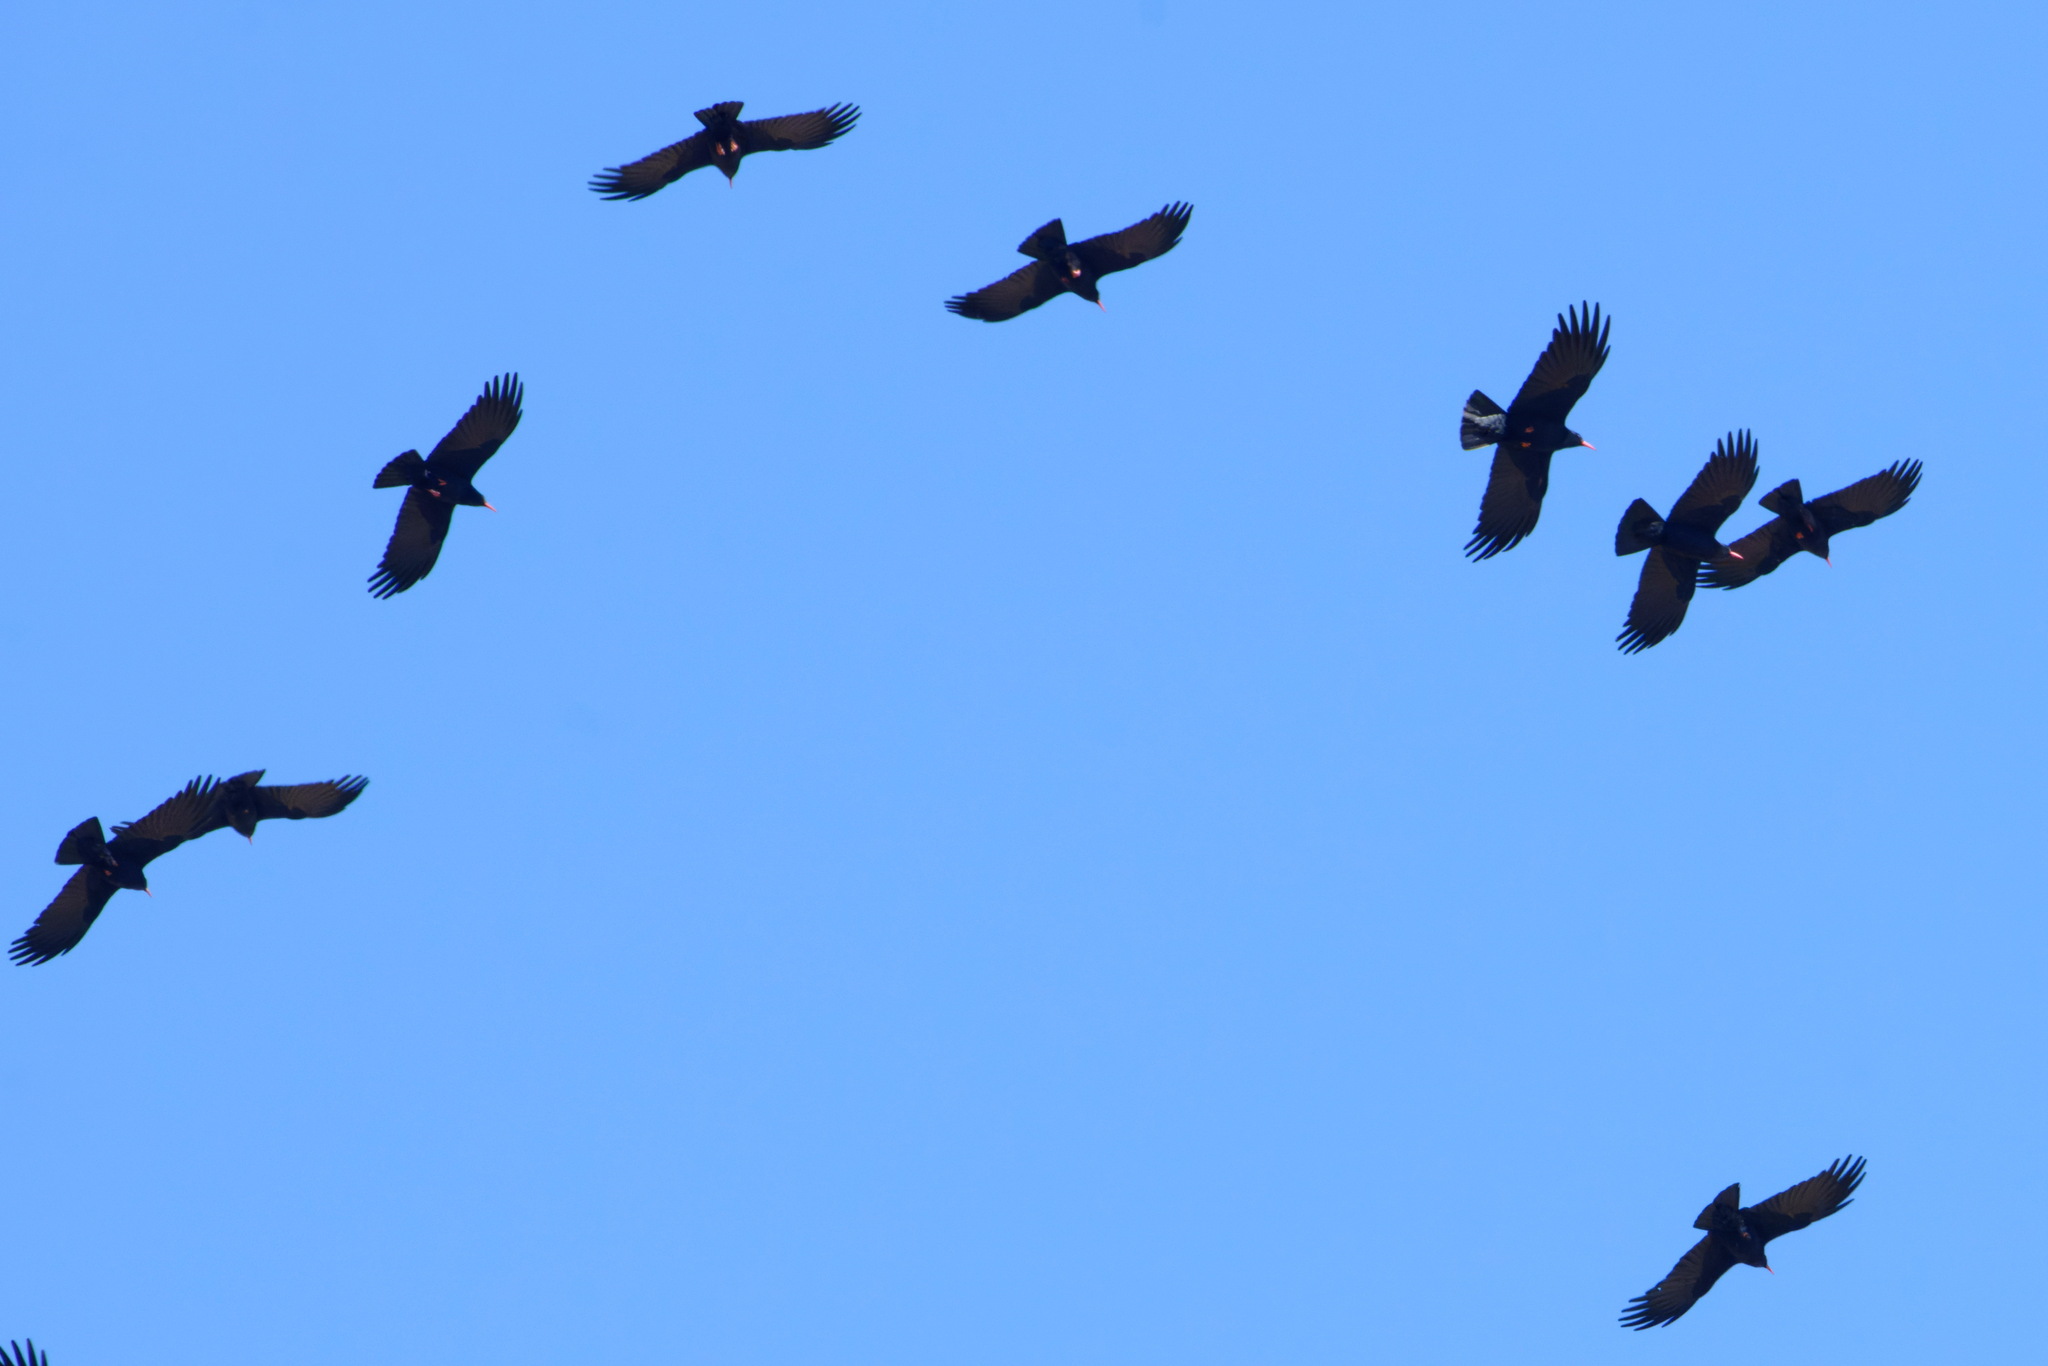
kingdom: Animalia
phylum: Chordata
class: Aves
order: Passeriformes
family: Corvidae
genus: Pyrrhocorax
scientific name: Pyrrhocorax pyrrhocorax
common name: Red-billed chough
